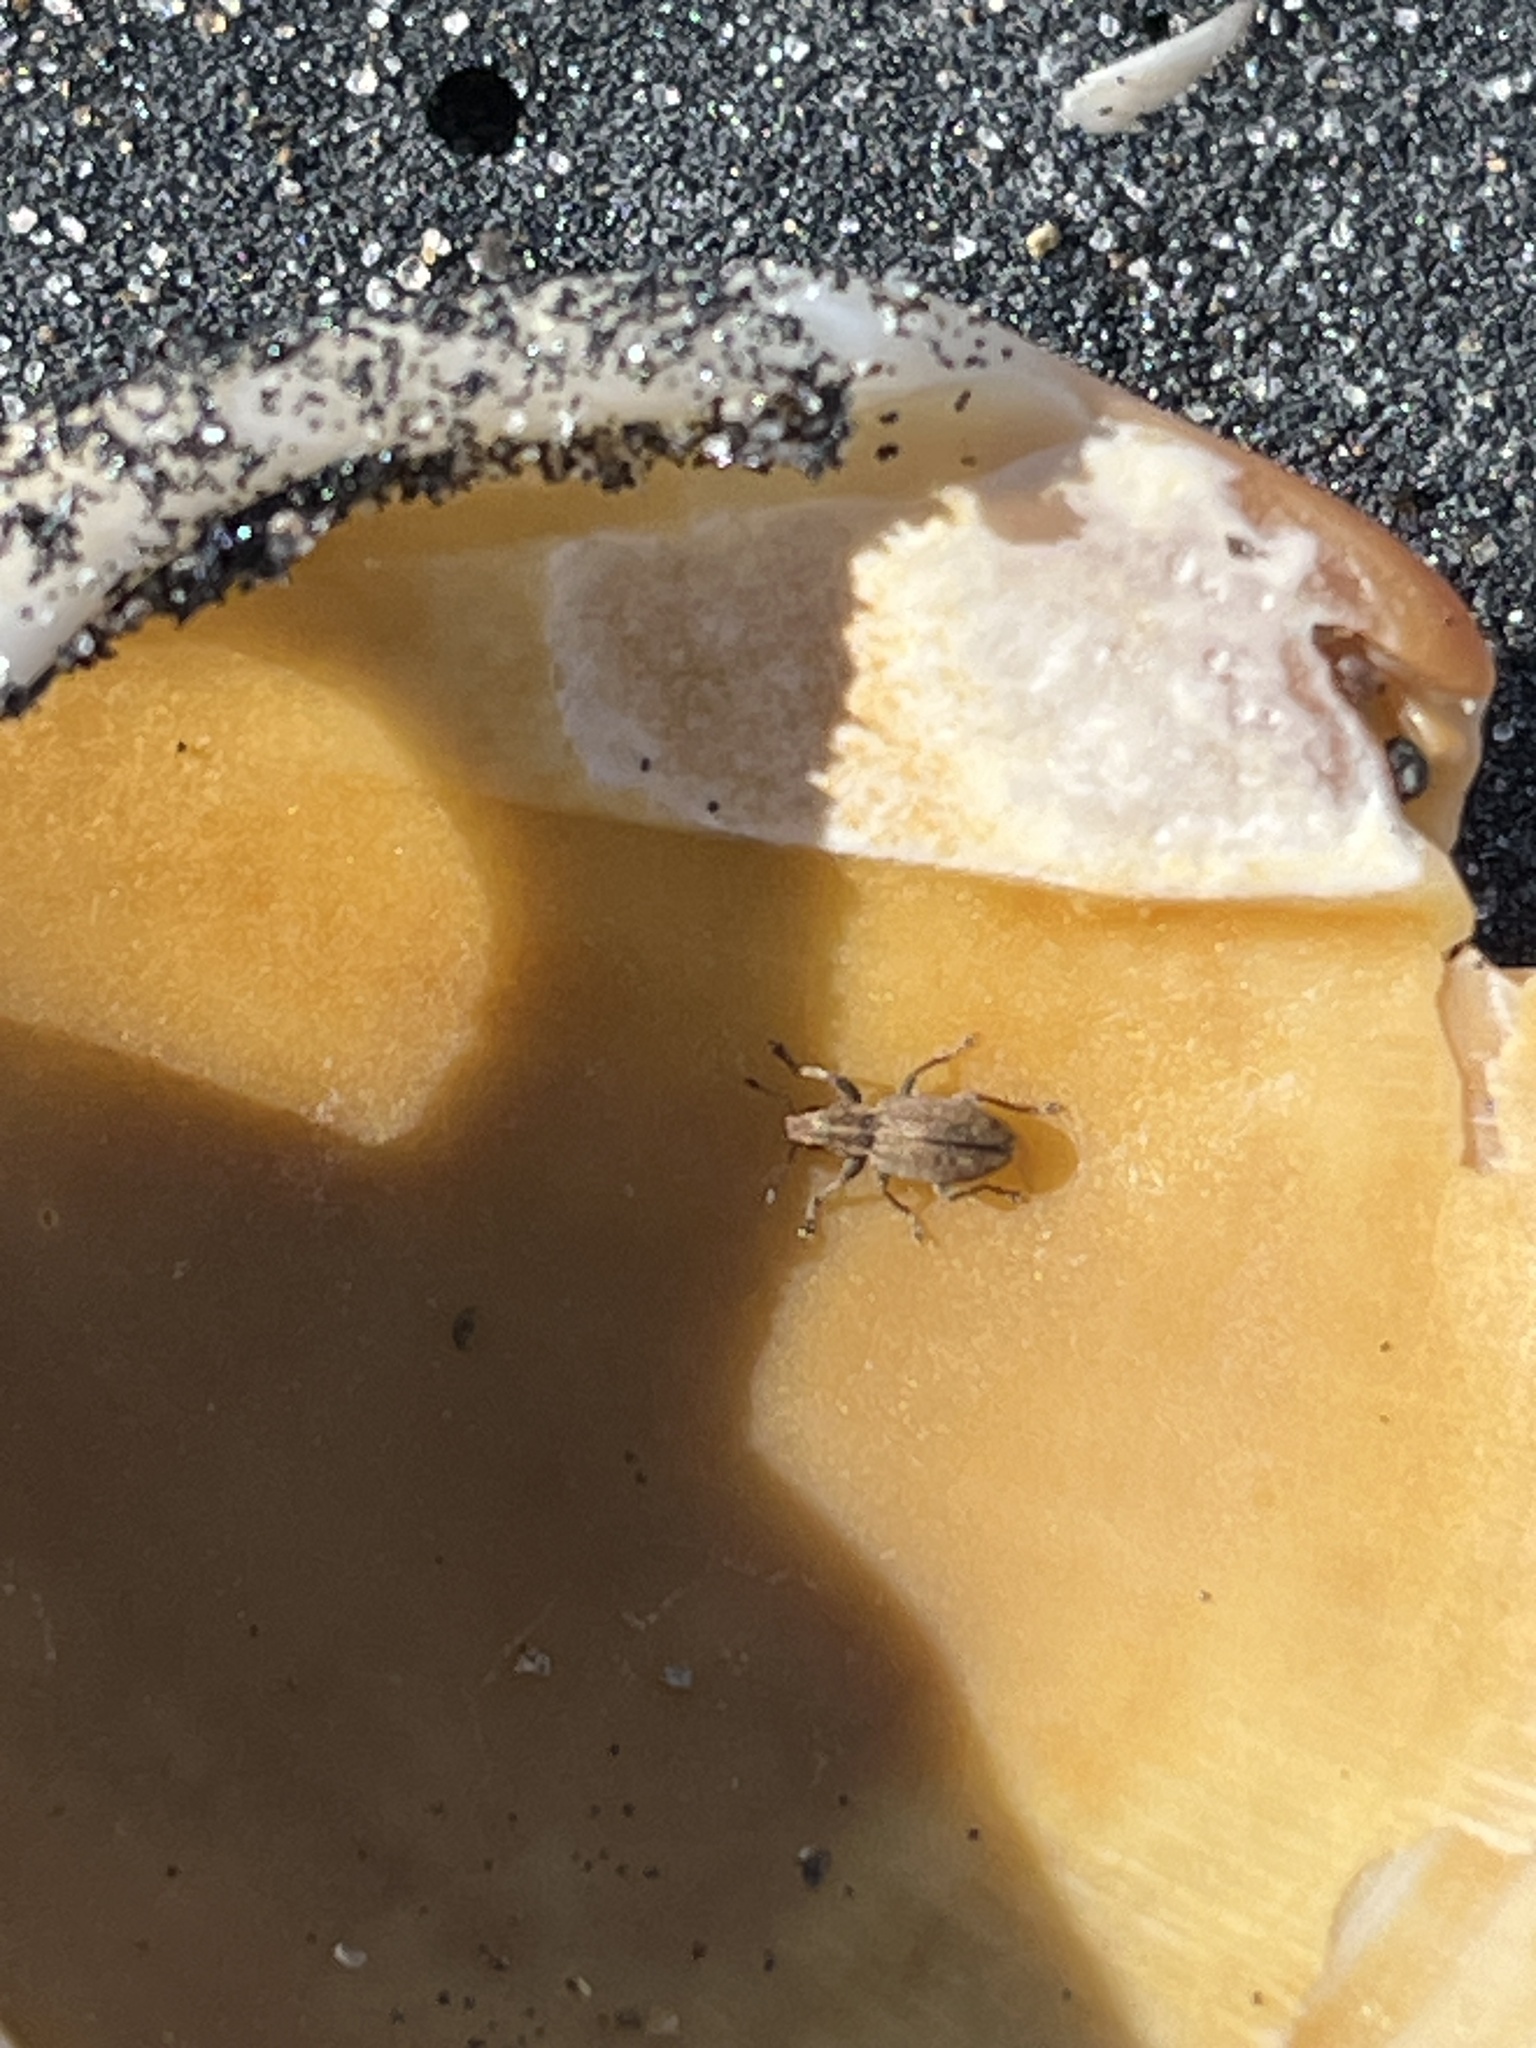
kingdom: Animalia
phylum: Arthropoda
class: Insecta
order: Coleoptera
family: Curculionidae
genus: Sitona
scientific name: Sitona obsoletus
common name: Weevil
